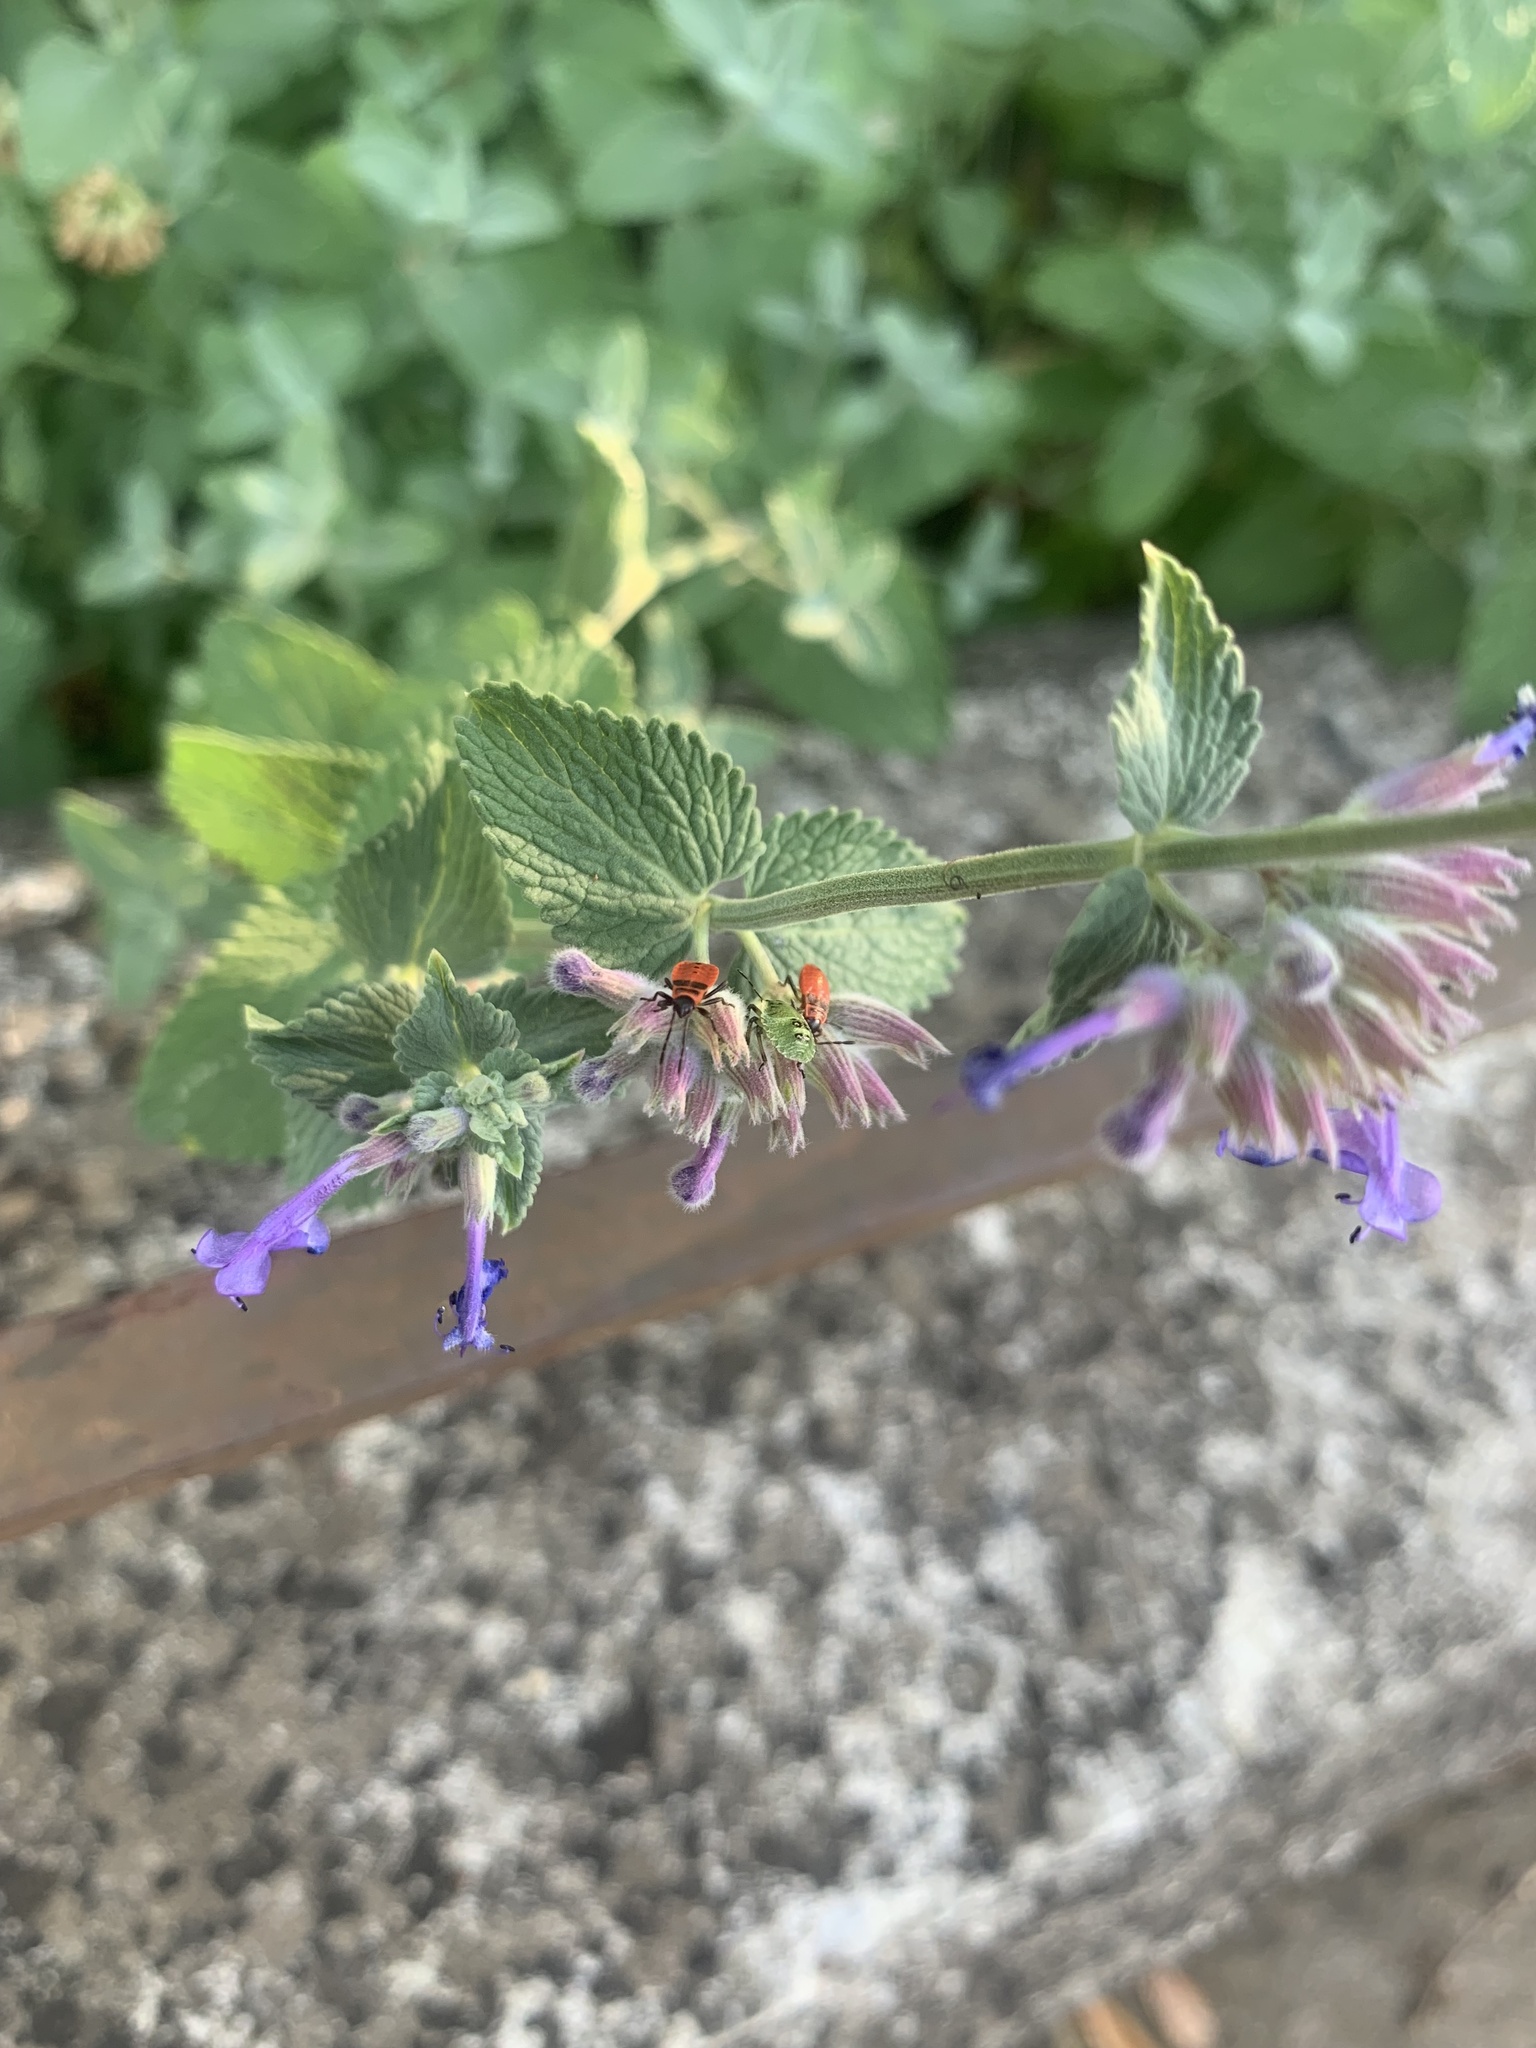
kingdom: Animalia
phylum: Arthropoda
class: Insecta
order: Hemiptera
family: Pyrrhocoridae
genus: Pyrrhocoris
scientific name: Pyrrhocoris apterus
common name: Firebug
